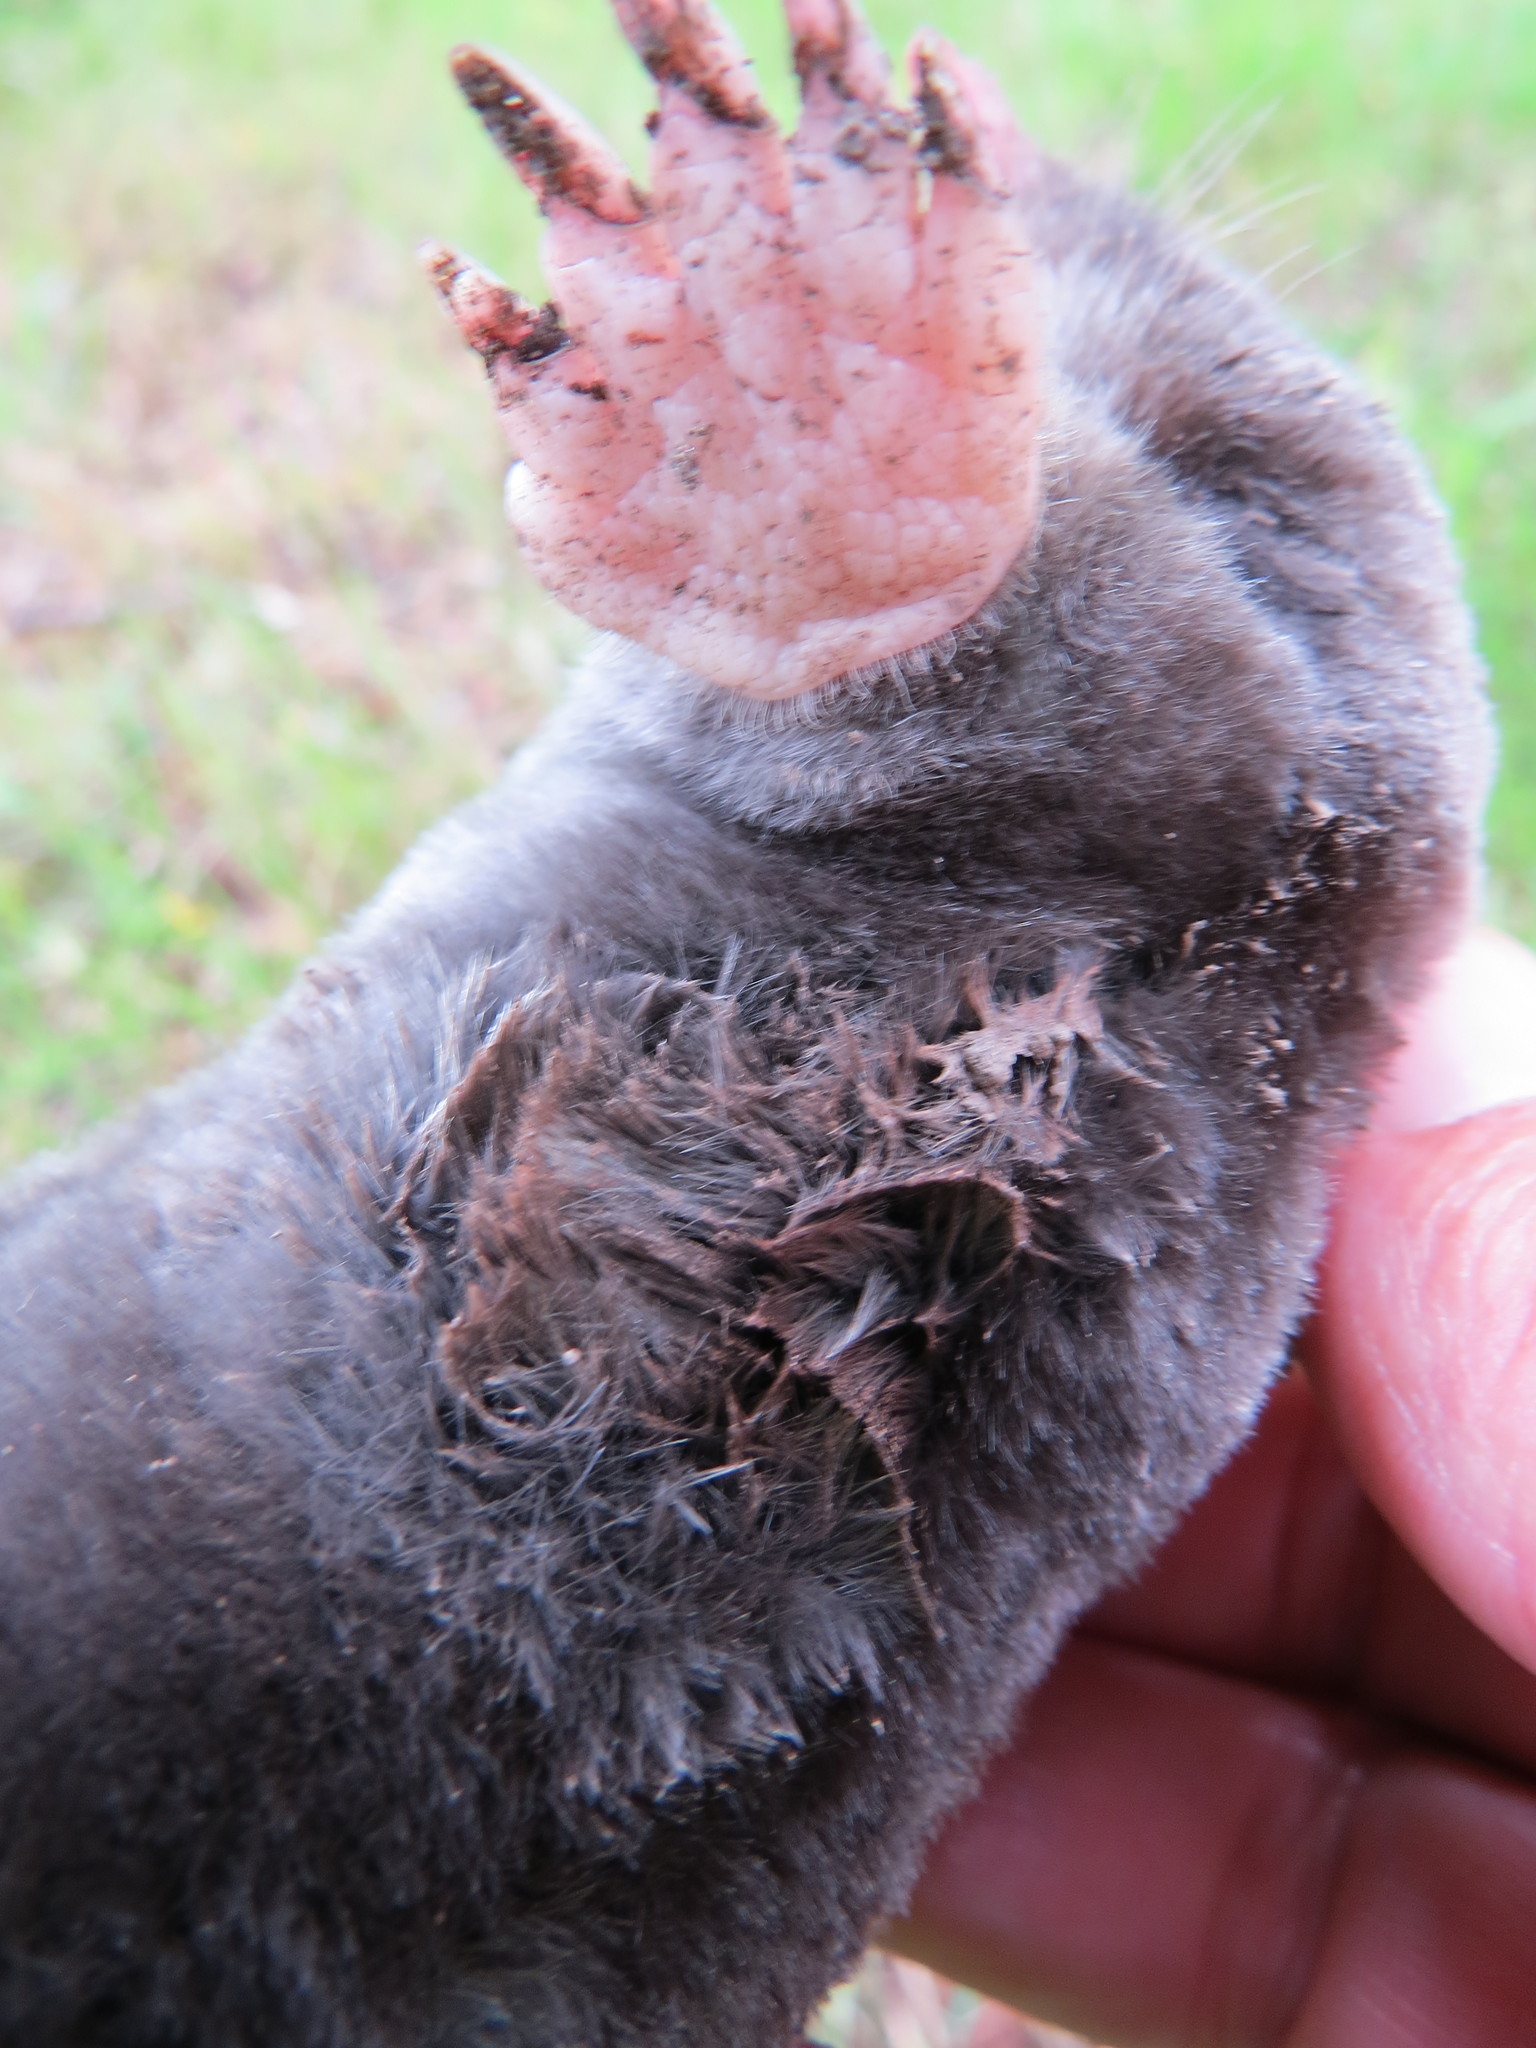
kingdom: Animalia
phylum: Chordata
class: Mammalia
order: Soricomorpha
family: Talpidae
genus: Scapanus
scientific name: Scapanus latimanus
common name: Broad-footed mole
